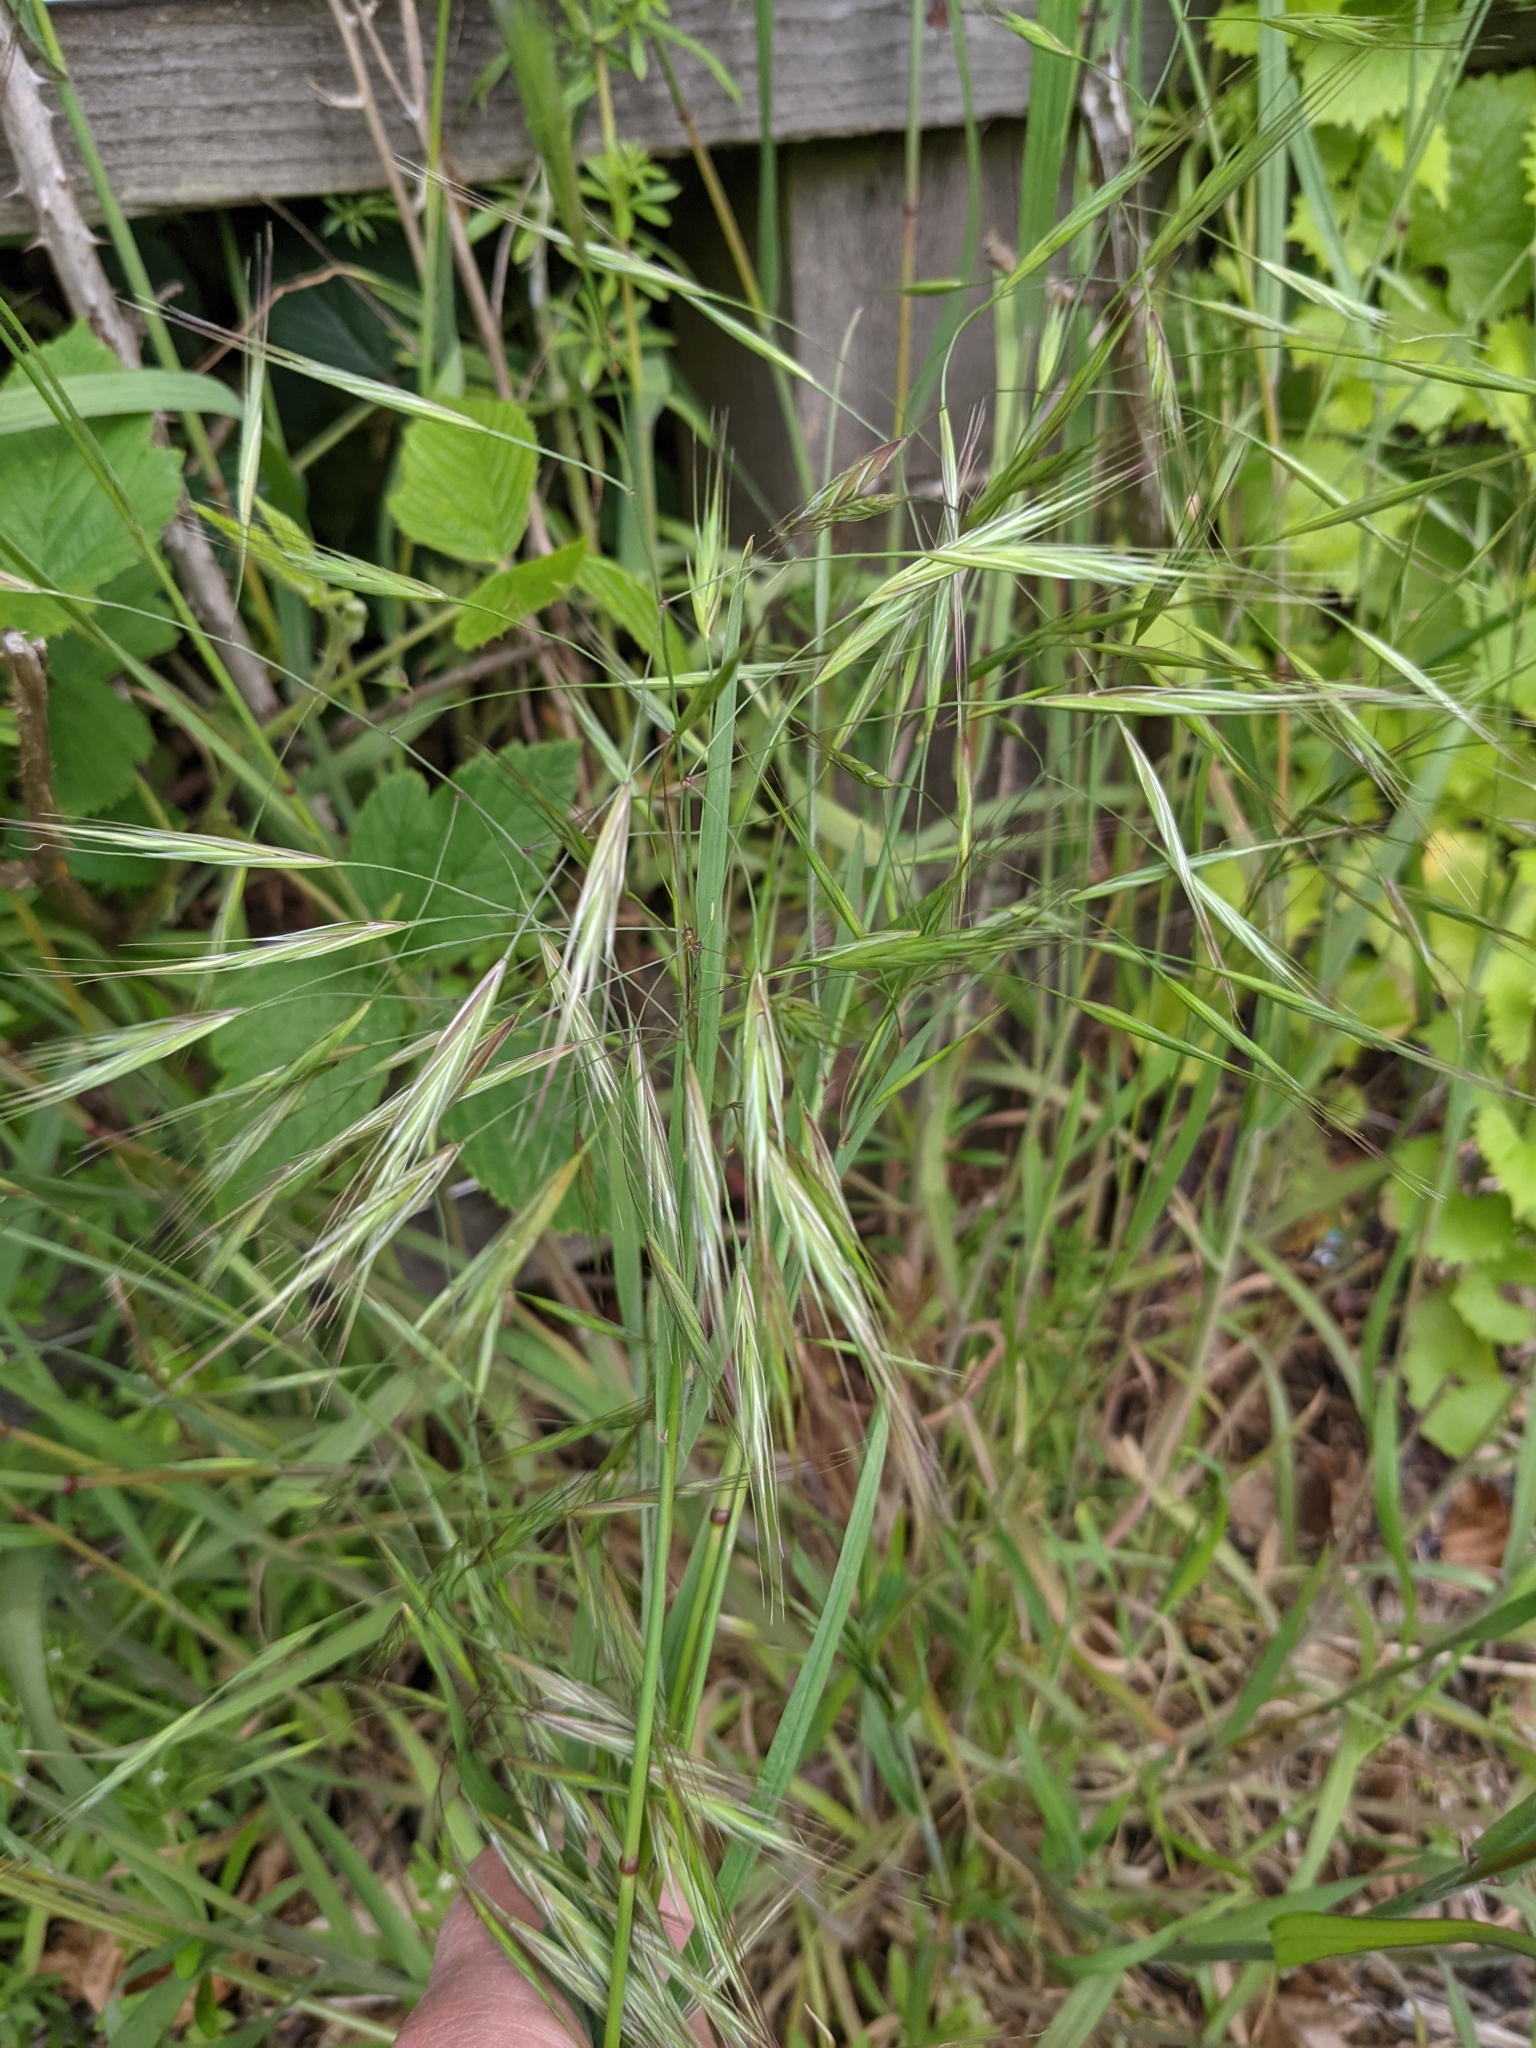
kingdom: Plantae
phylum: Tracheophyta
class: Liliopsida
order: Poales
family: Poaceae
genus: Bromus
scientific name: Bromus sterilis
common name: Poverty brome
